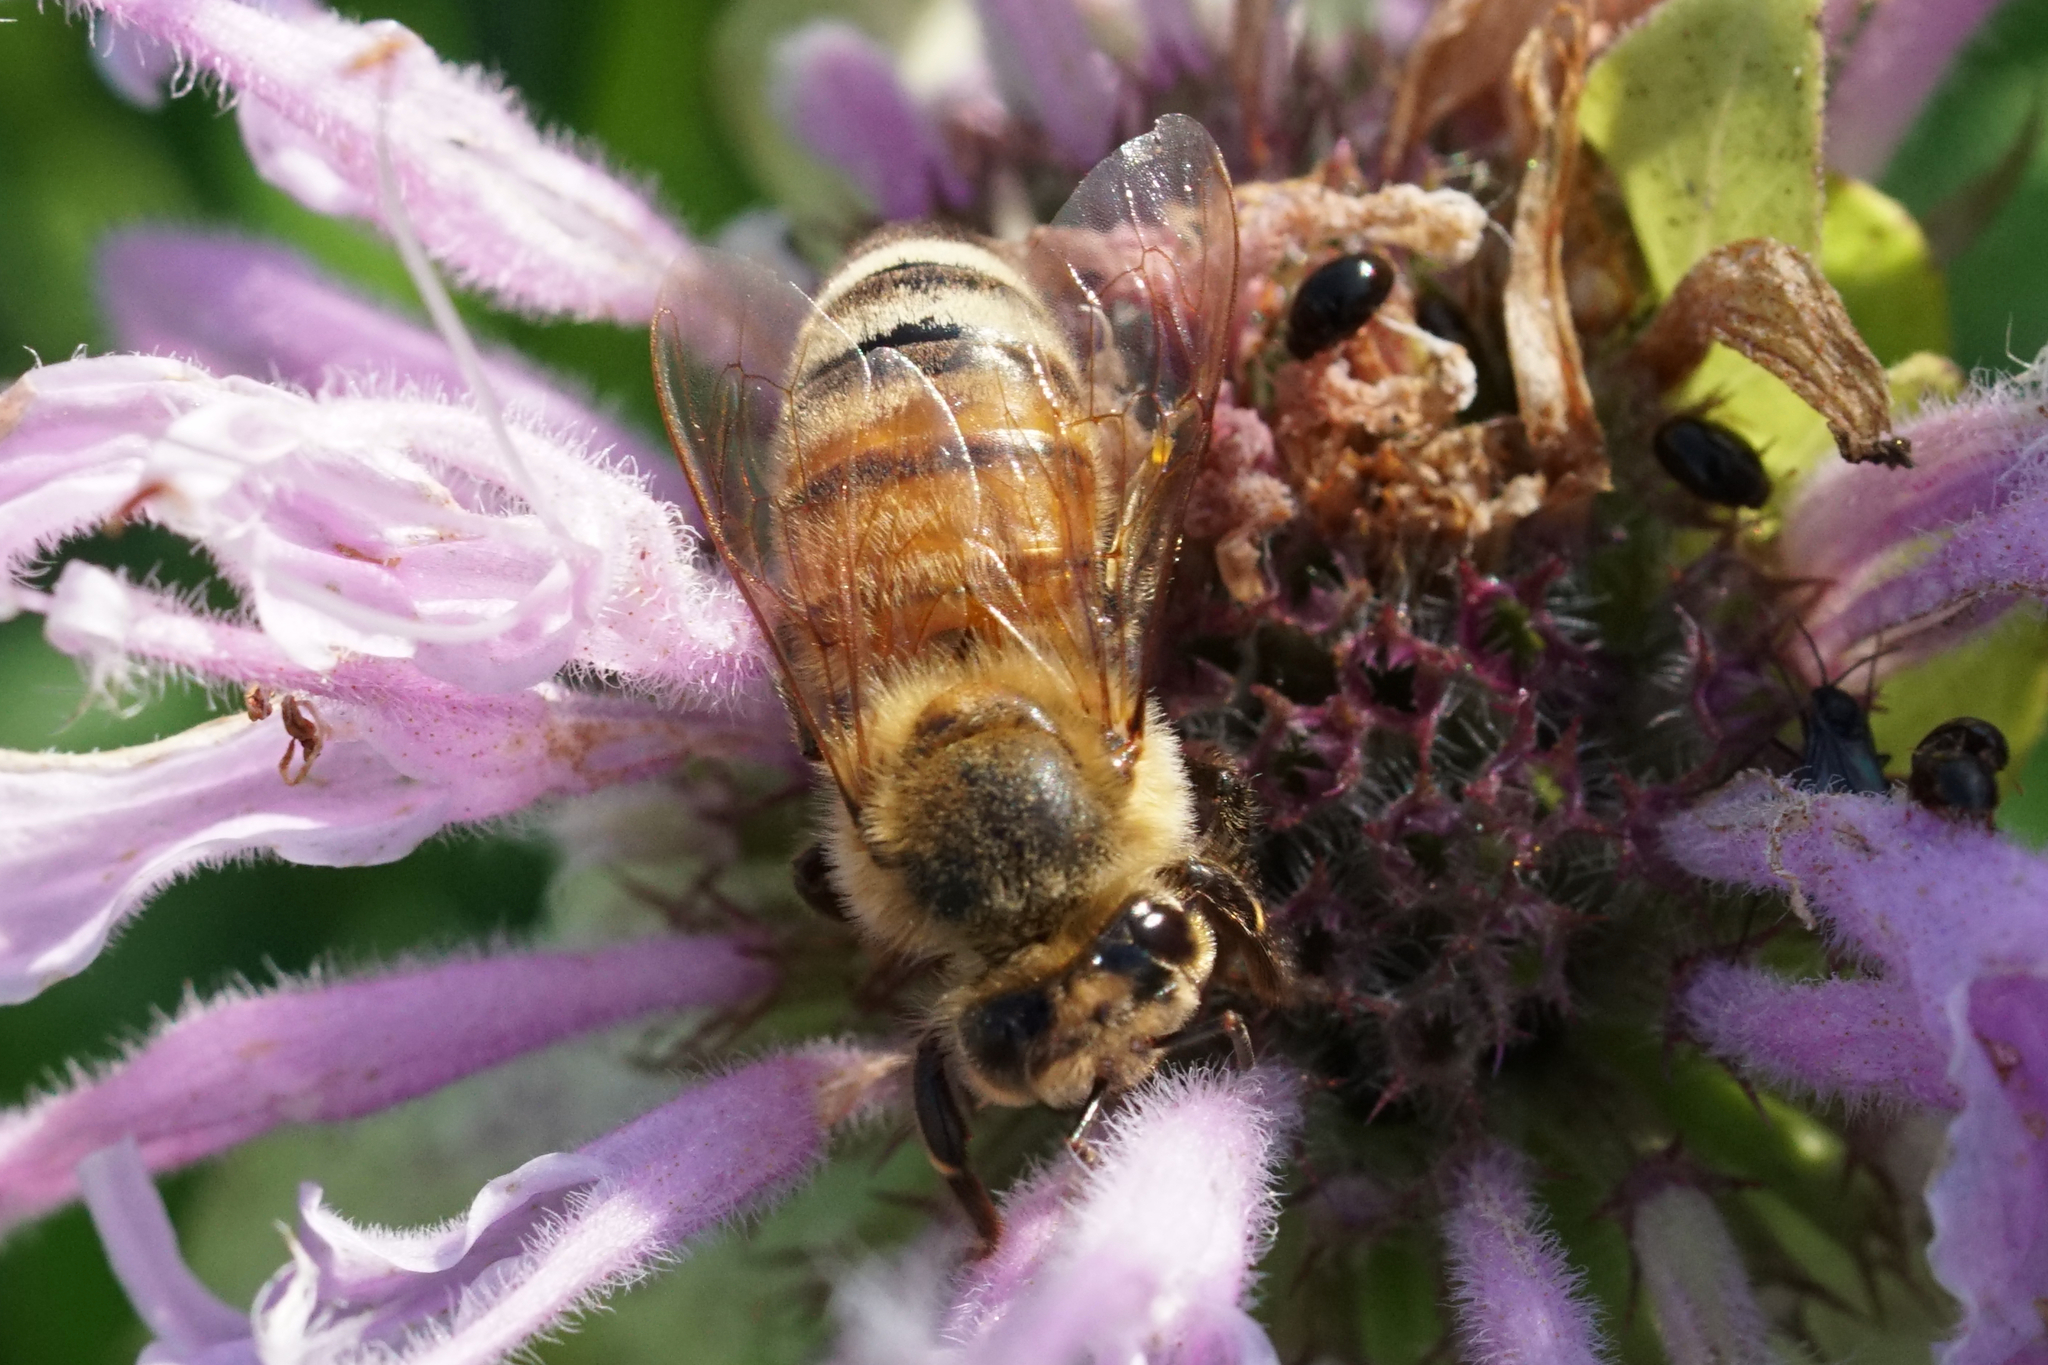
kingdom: Animalia
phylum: Arthropoda
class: Insecta
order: Hymenoptera
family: Apidae
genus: Apis
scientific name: Apis mellifera
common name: Honey bee
